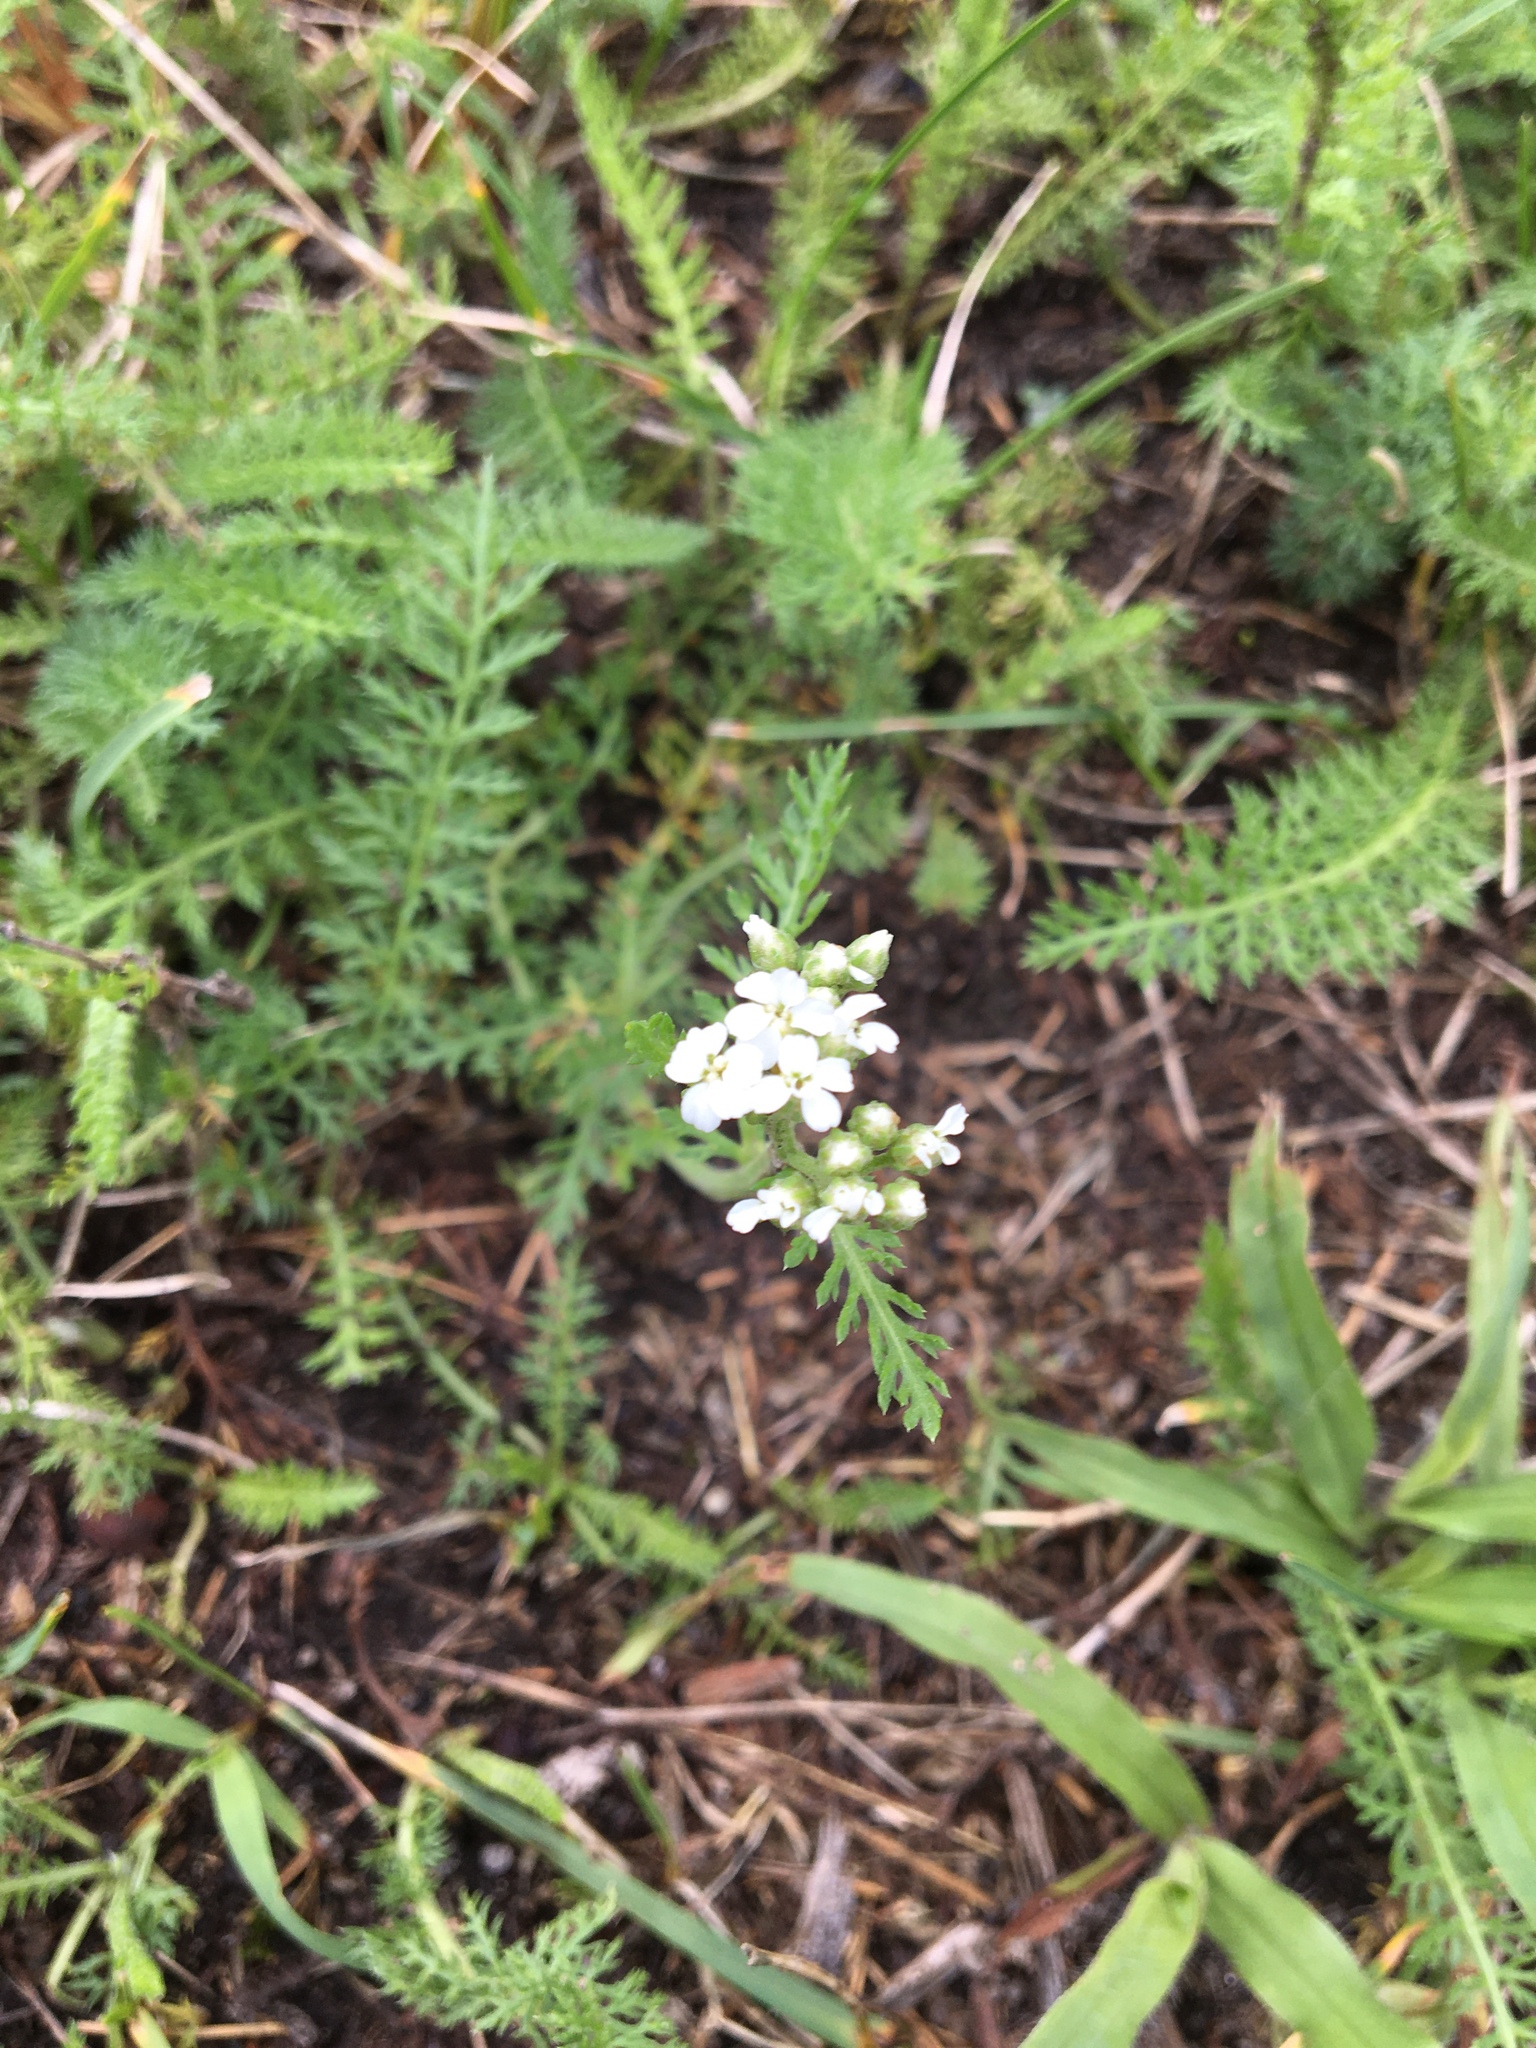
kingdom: Plantae
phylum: Tracheophyta
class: Magnoliopsida
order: Asterales
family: Asteraceae
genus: Achillea
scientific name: Achillea millefolium
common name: Yarrow
